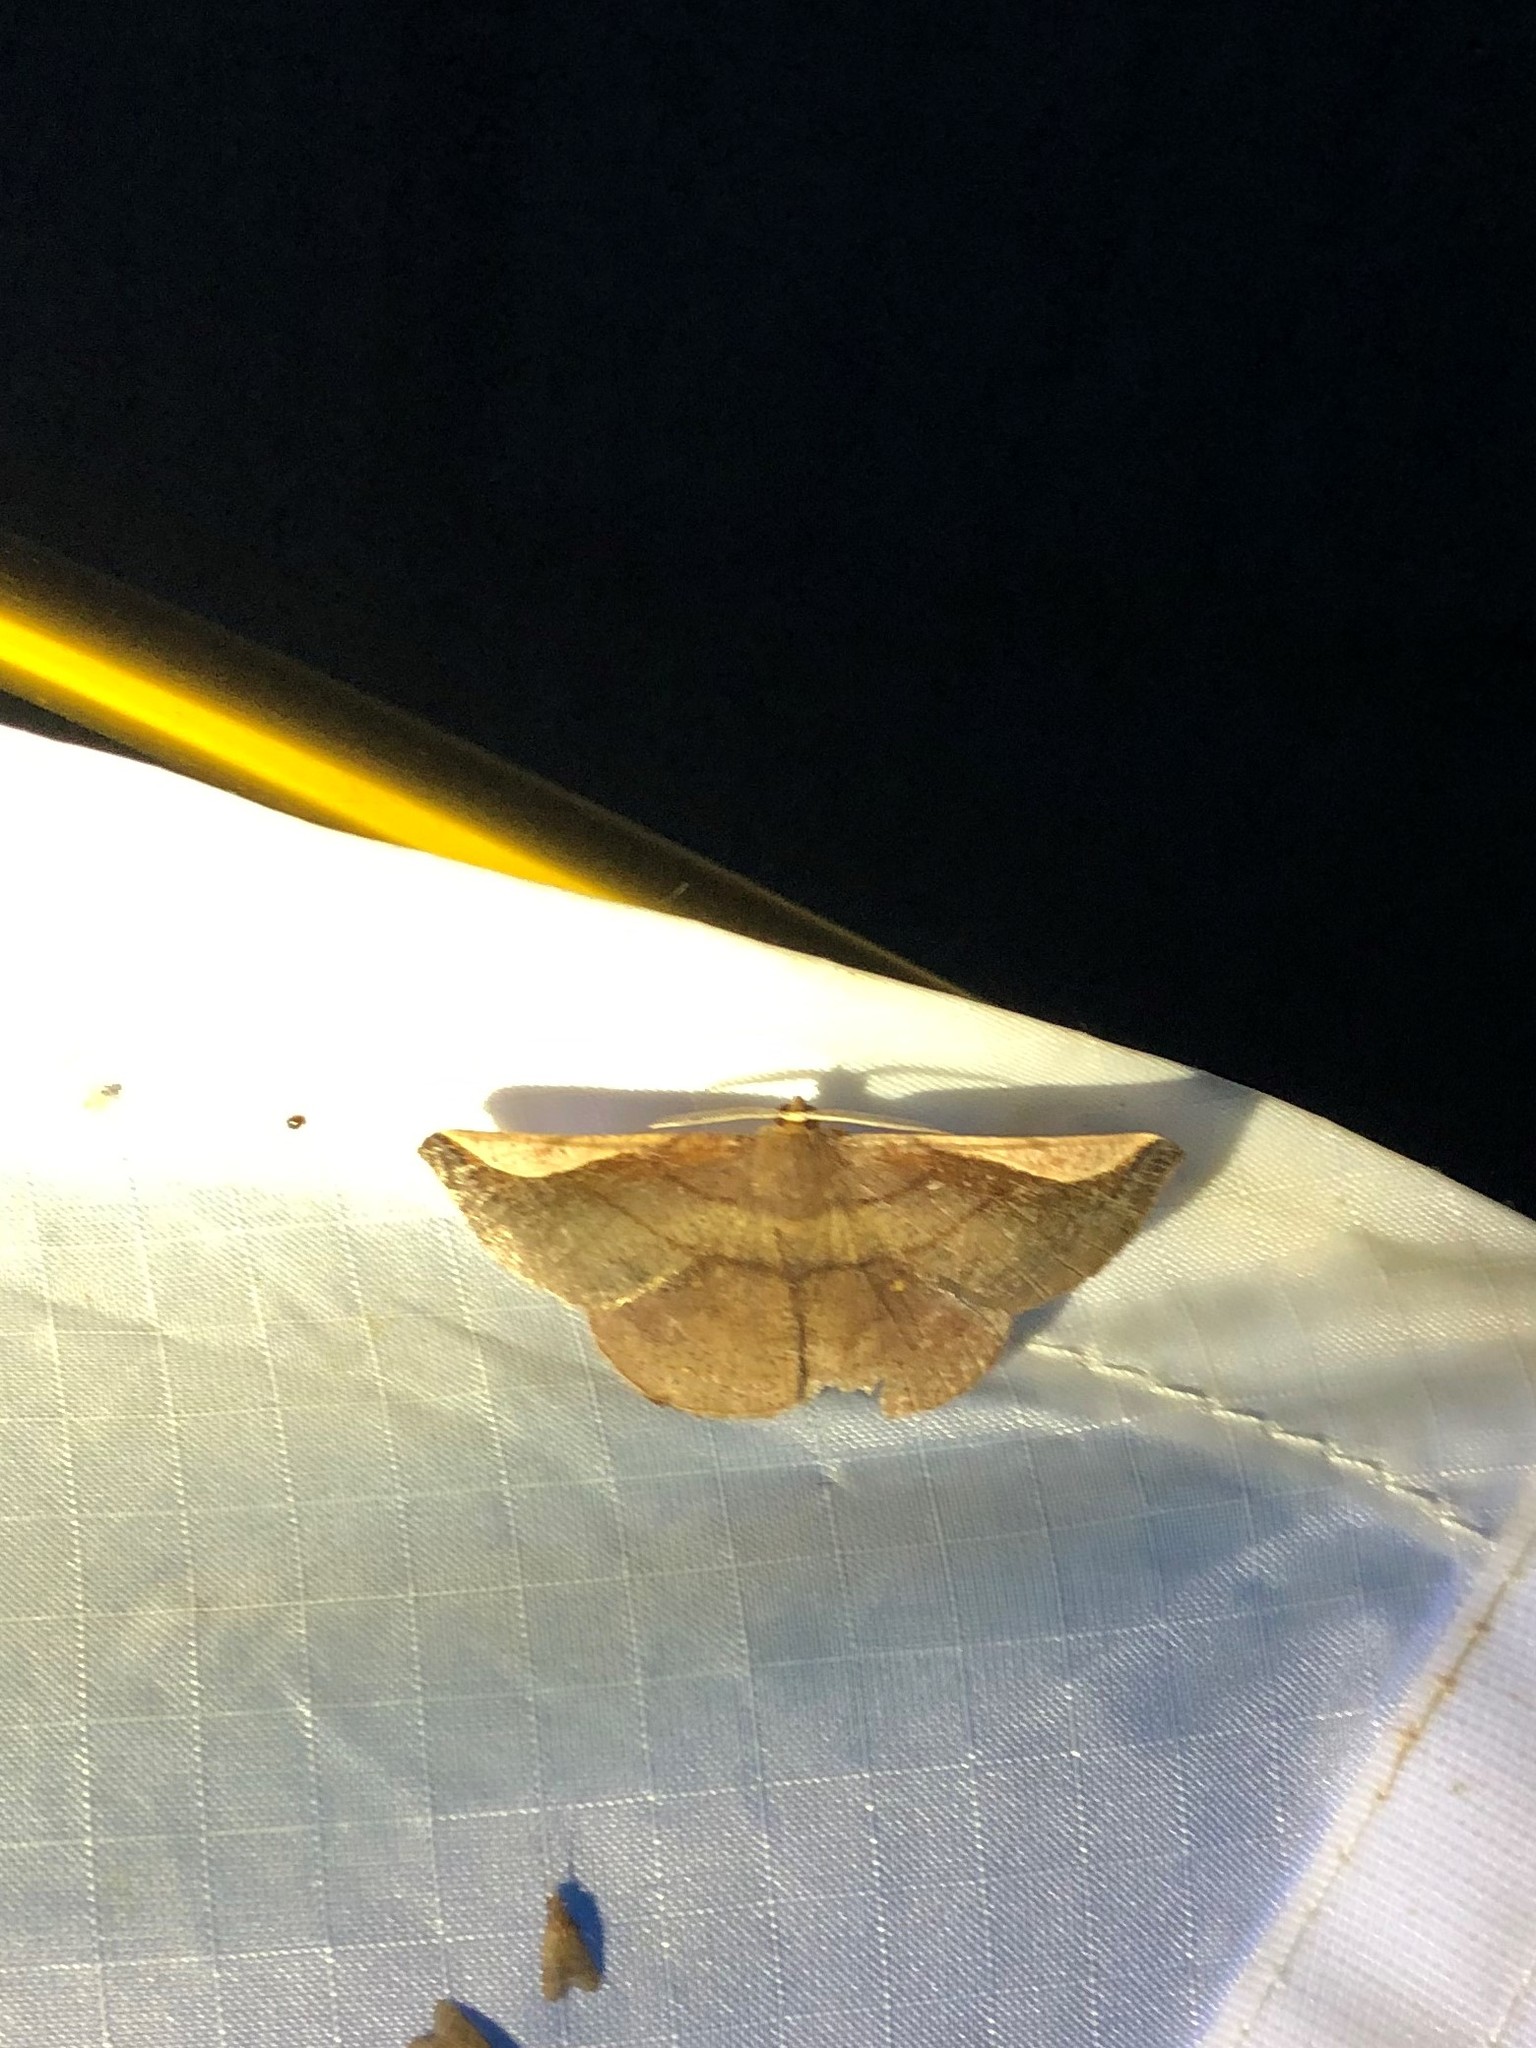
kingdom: Animalia
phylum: Arthropoda
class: Insecta
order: Lepidoptera
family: Geometridae
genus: Sphacelodes
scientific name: Sphacelodes quadrilineata
